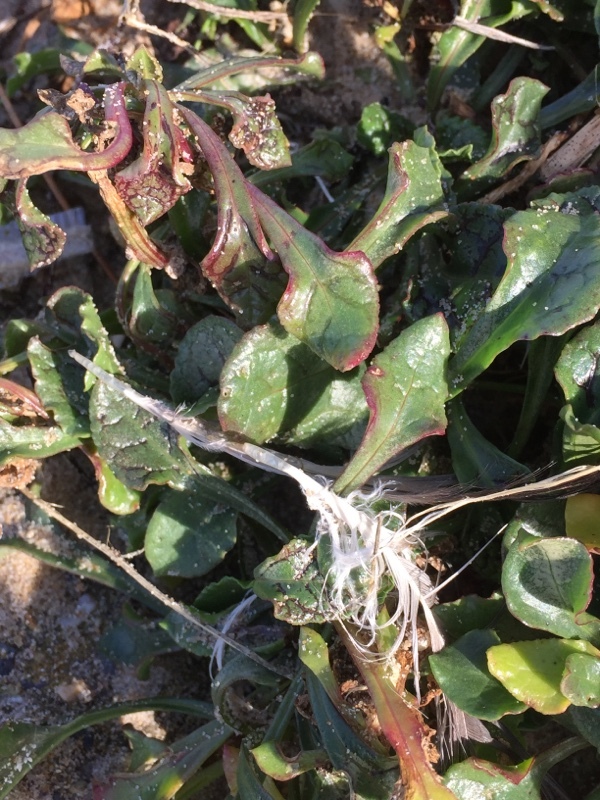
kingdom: Plantae
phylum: Tracheophyta
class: Magnoliopsida
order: Caryophyllales
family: Amaranthaceae
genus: Beta
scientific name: Beta vulgaris
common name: Beet
